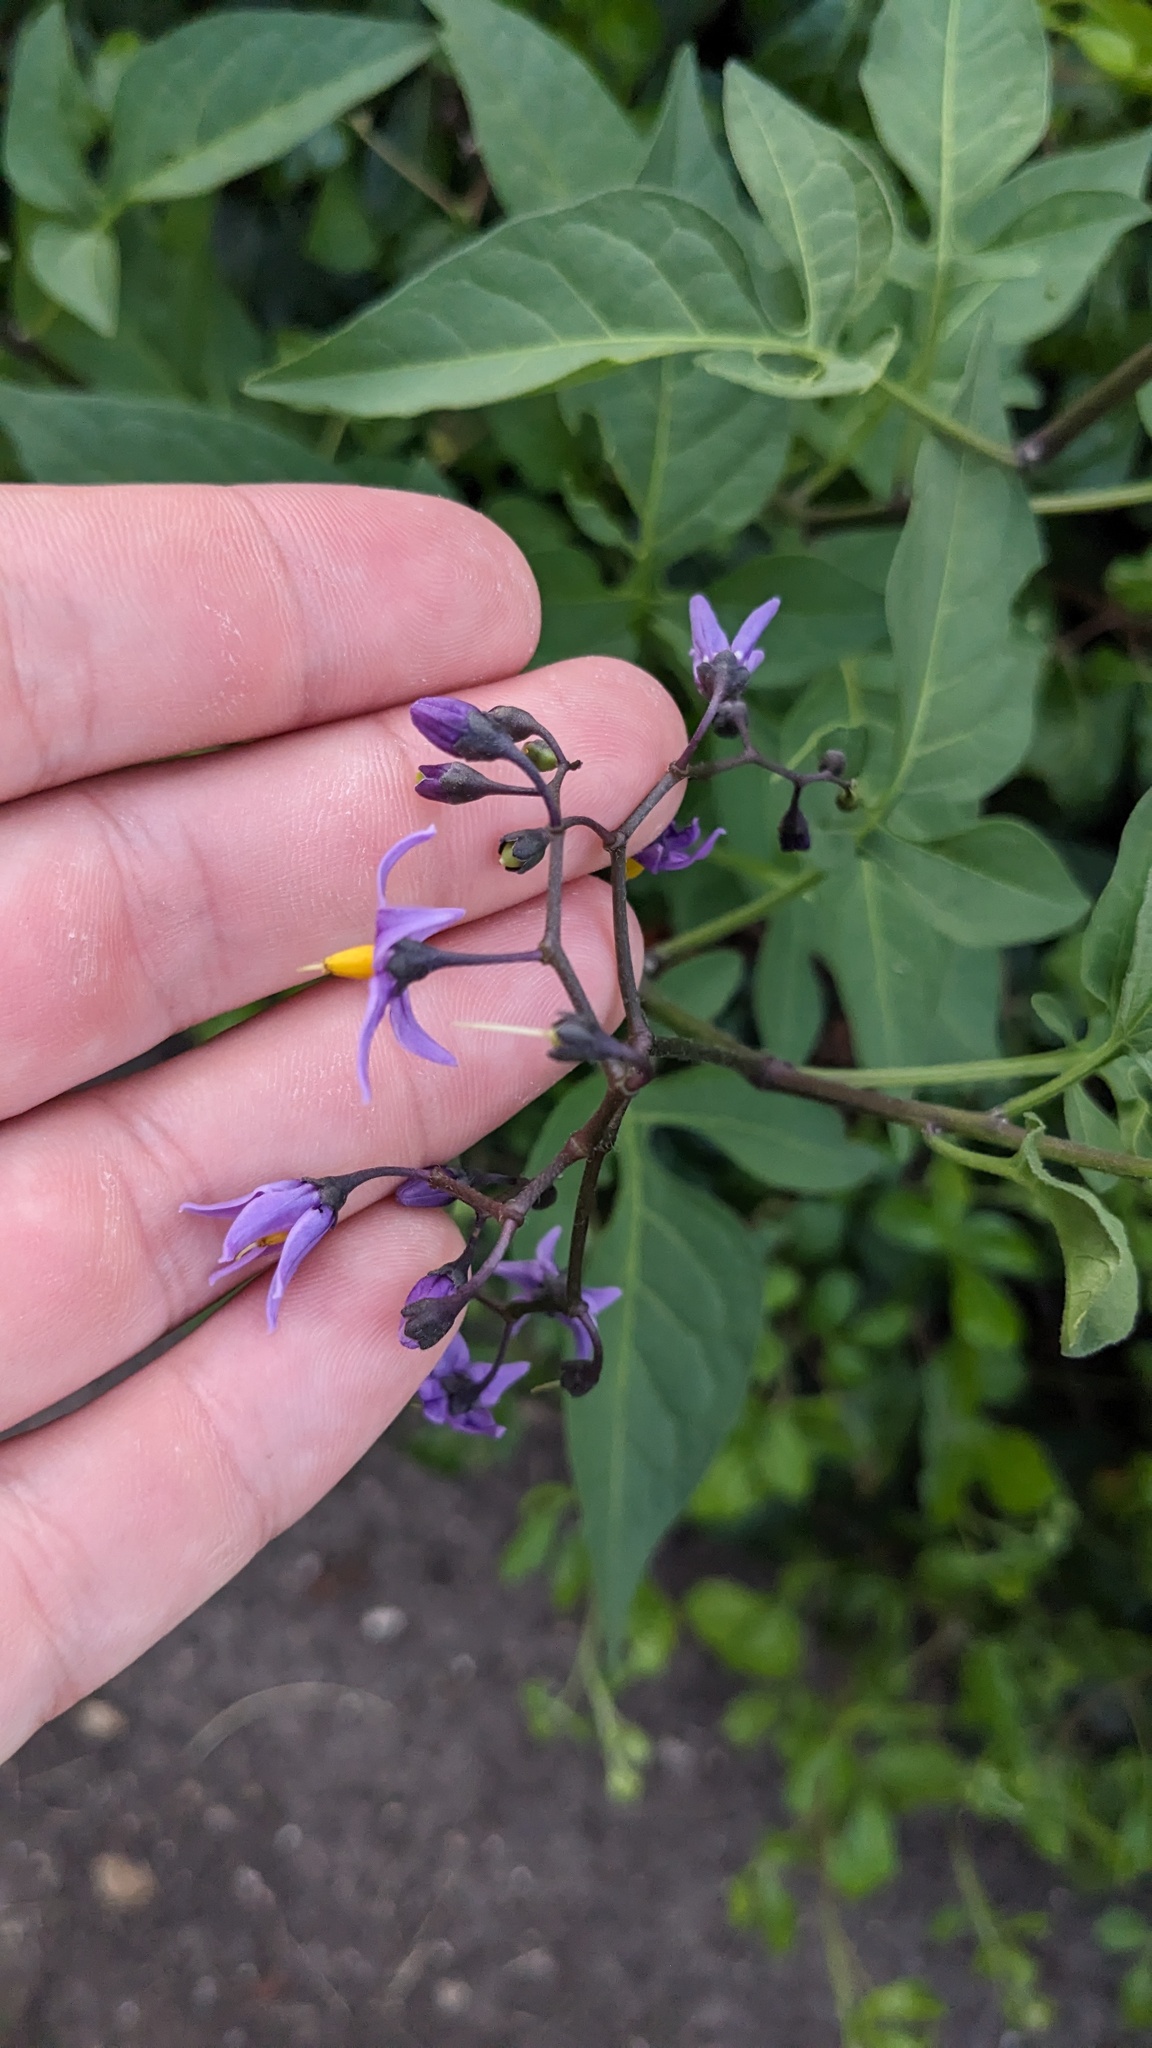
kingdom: Plantae
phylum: Tracheophyta
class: Magnoliopsida
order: Solanales
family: Solanaceae
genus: Solanum
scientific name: Solanum dulcamara
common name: Climbing nightshade
